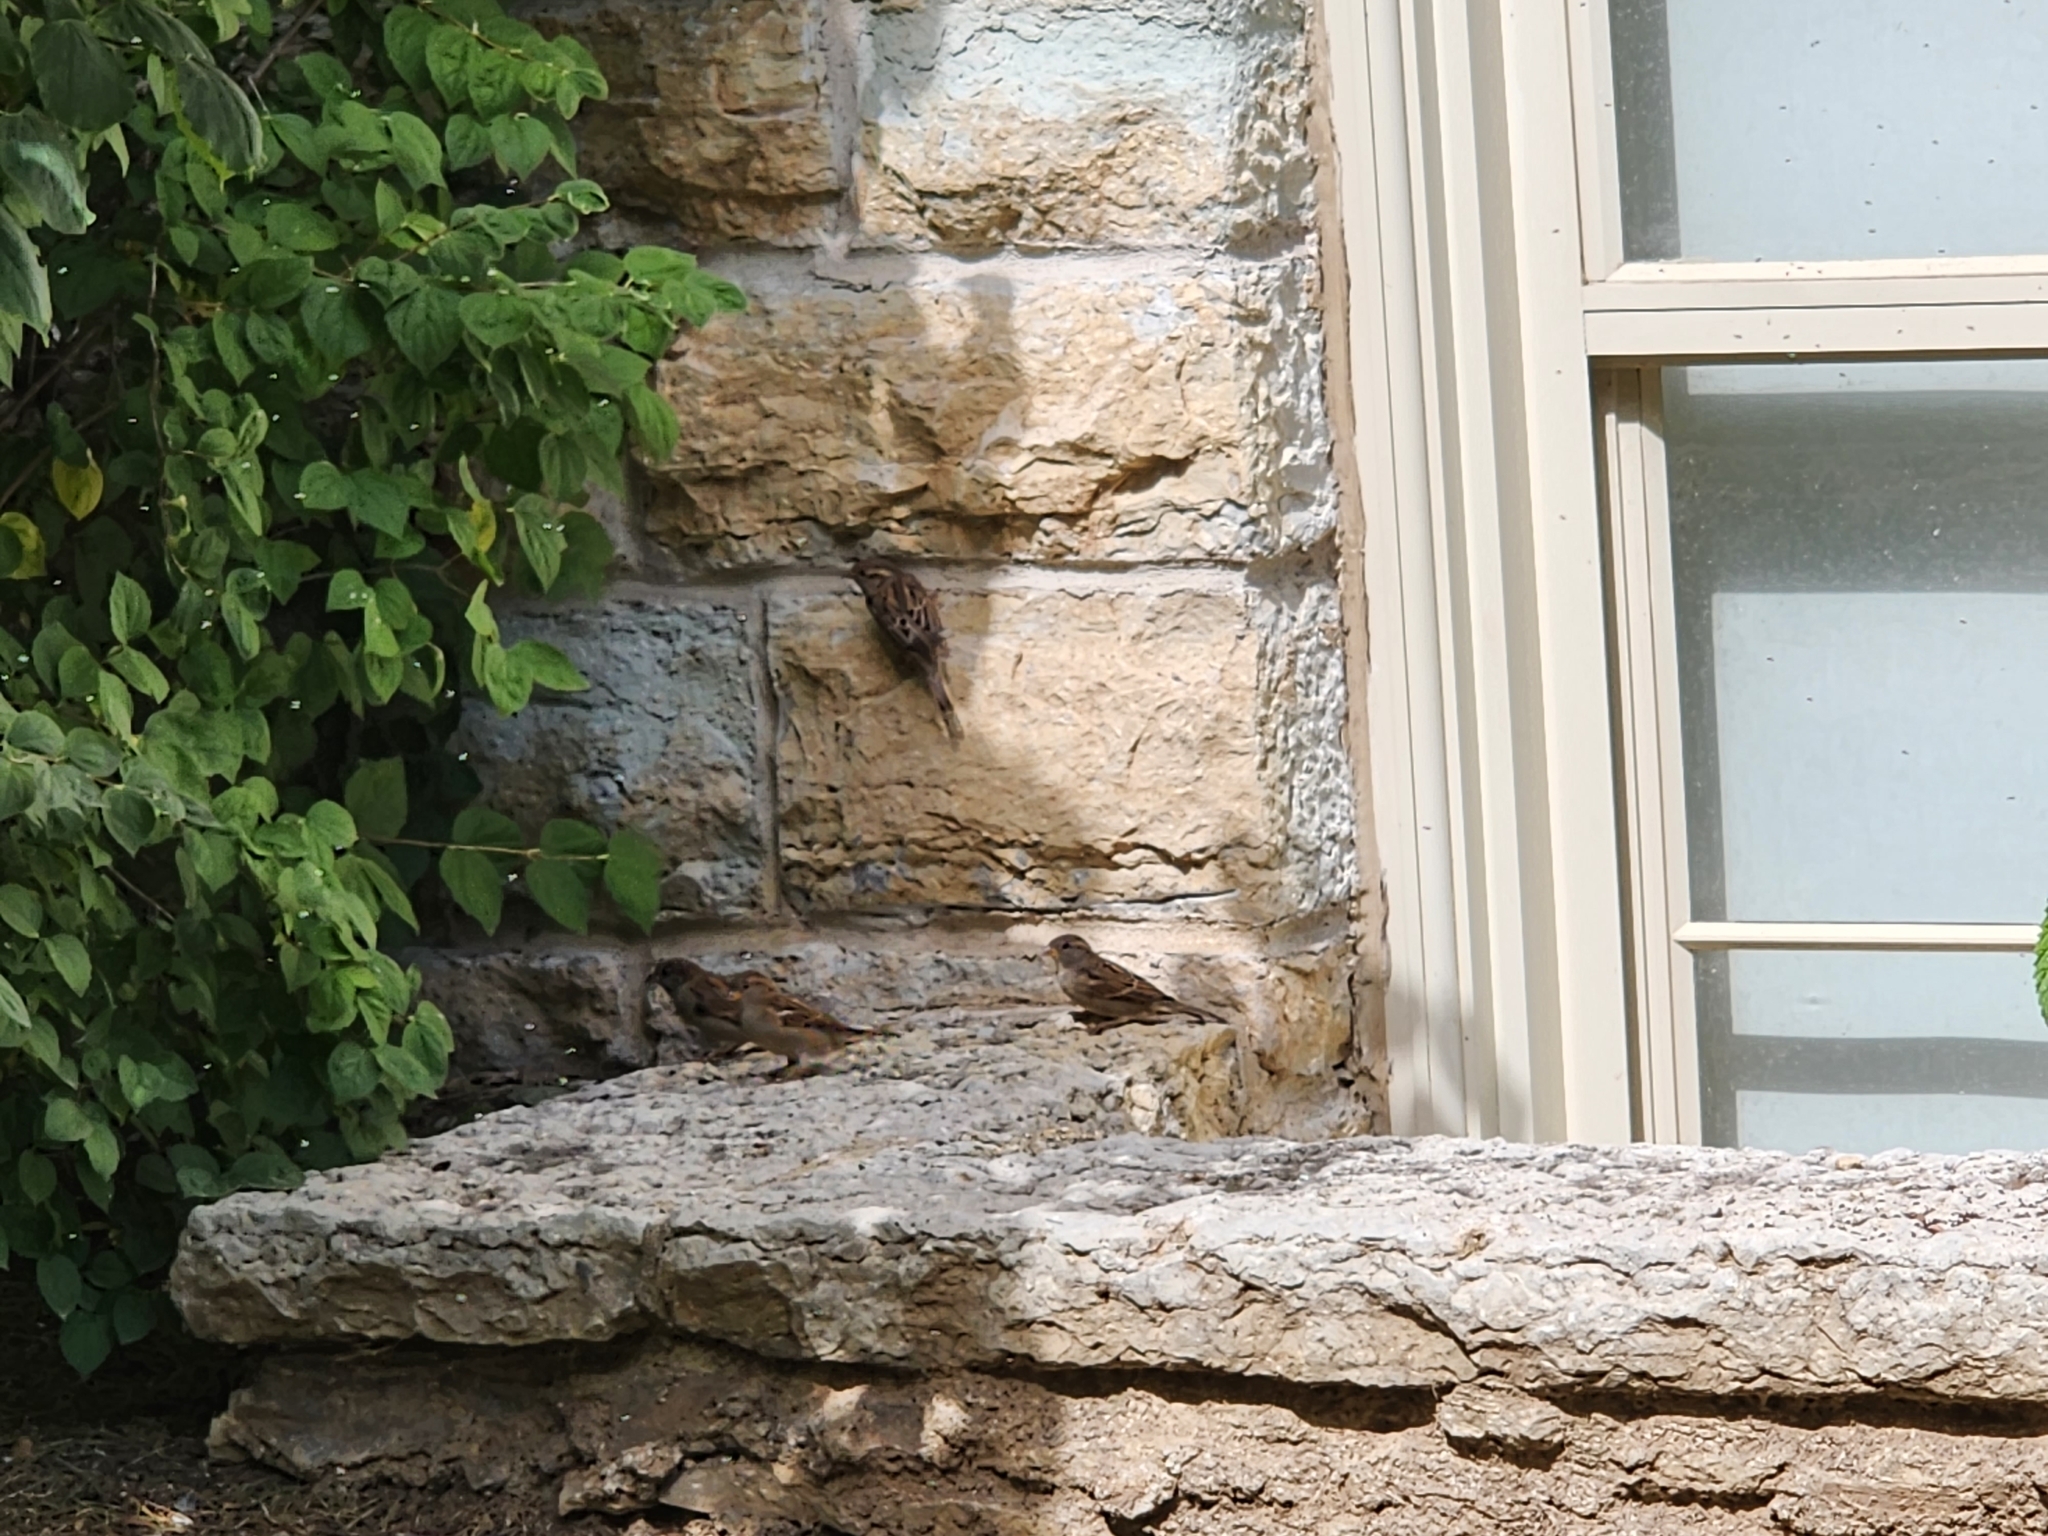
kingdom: Animalia
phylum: Chordata
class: Aves
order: Passeriformes
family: Passeridae
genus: Passer
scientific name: Passer domesticus
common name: House sparrow
